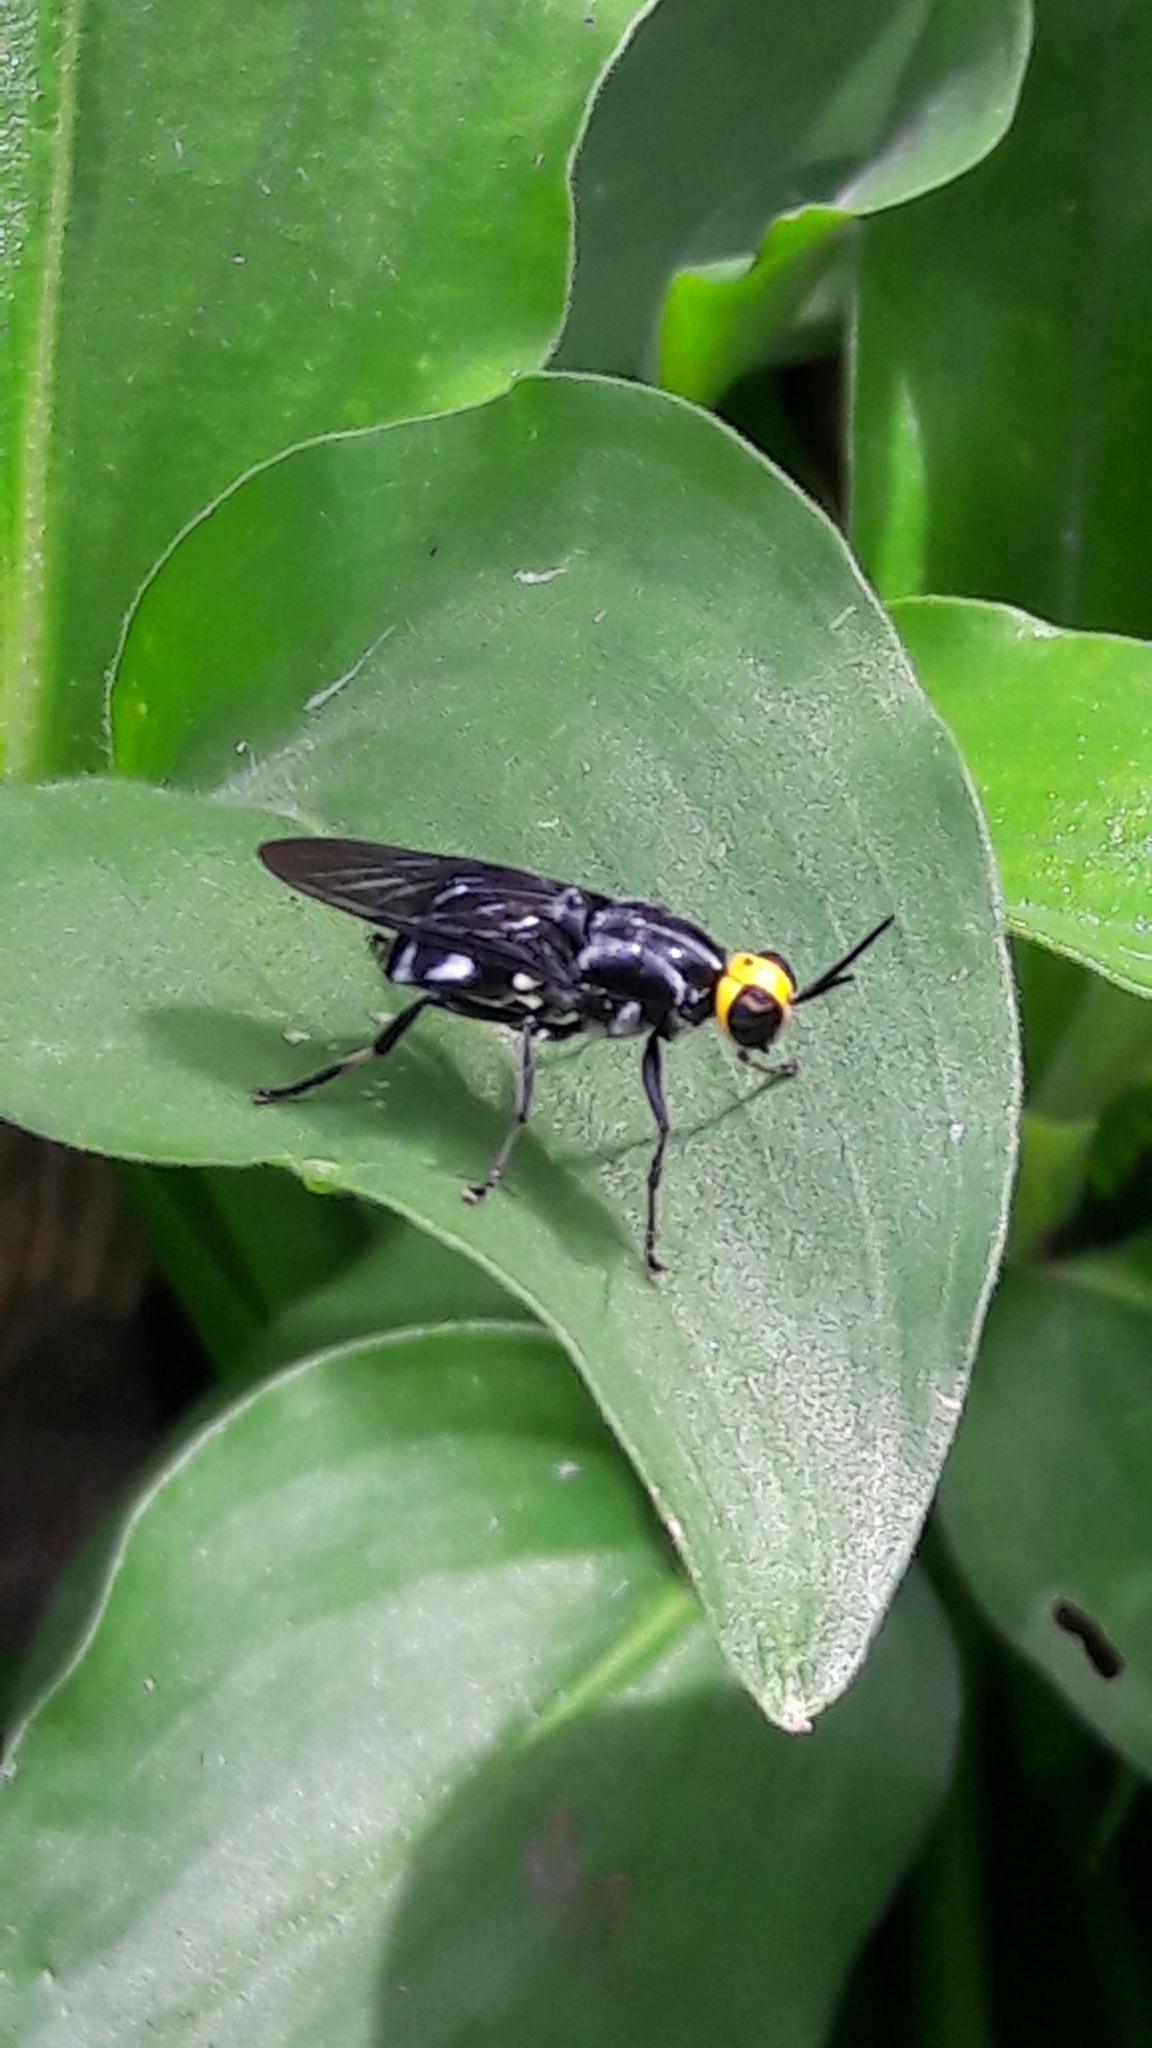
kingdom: Animalia
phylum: Arthropoda
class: Insecta
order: Diptera
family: Stratiomyidae
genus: Cyphomyia
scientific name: Cyphomyia wiedemanni
